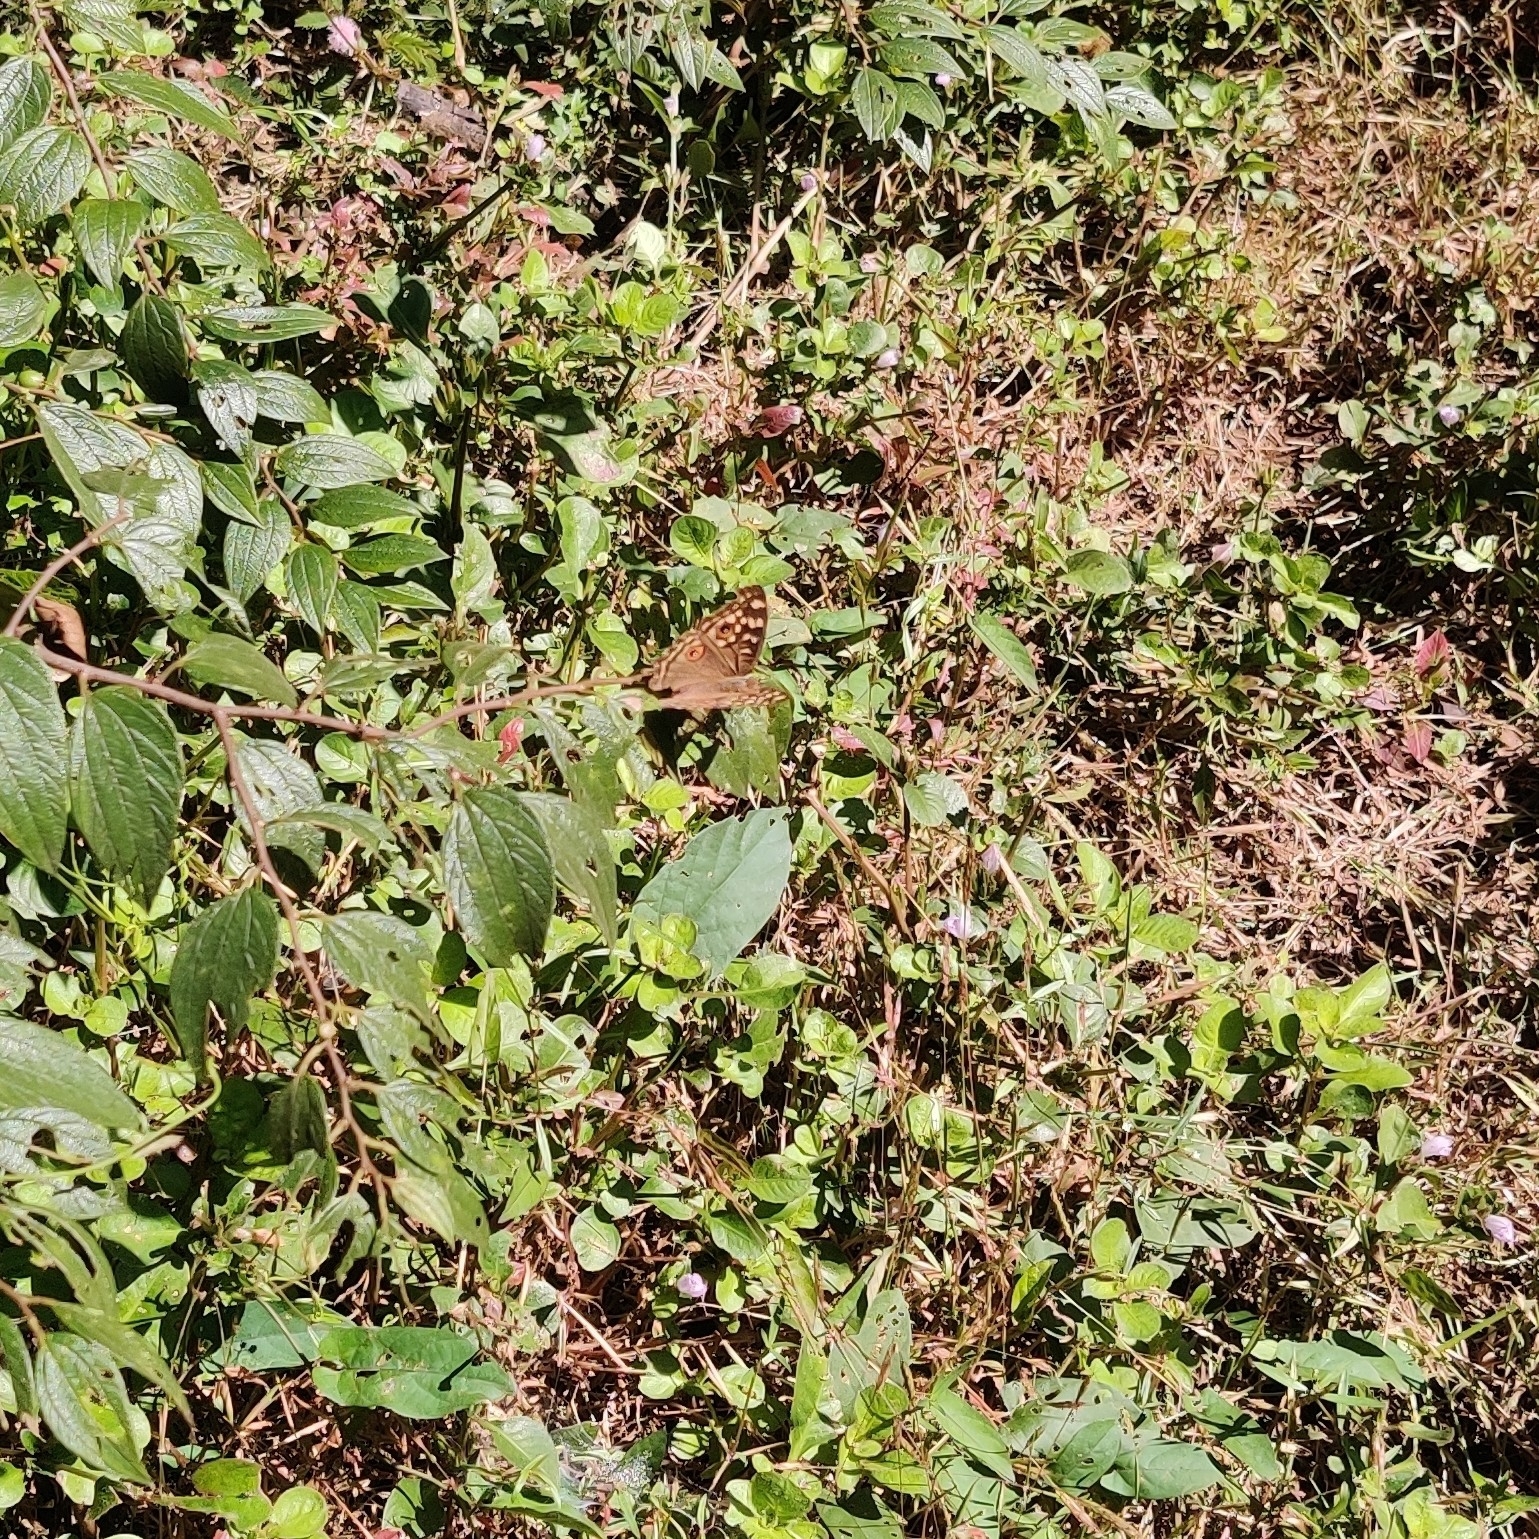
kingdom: Animalia
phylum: Arthropoda
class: Insecta
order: Lepidoptera
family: Nymphalidae
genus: Junonia
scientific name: Junonia lemonias
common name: Lemon pansy
